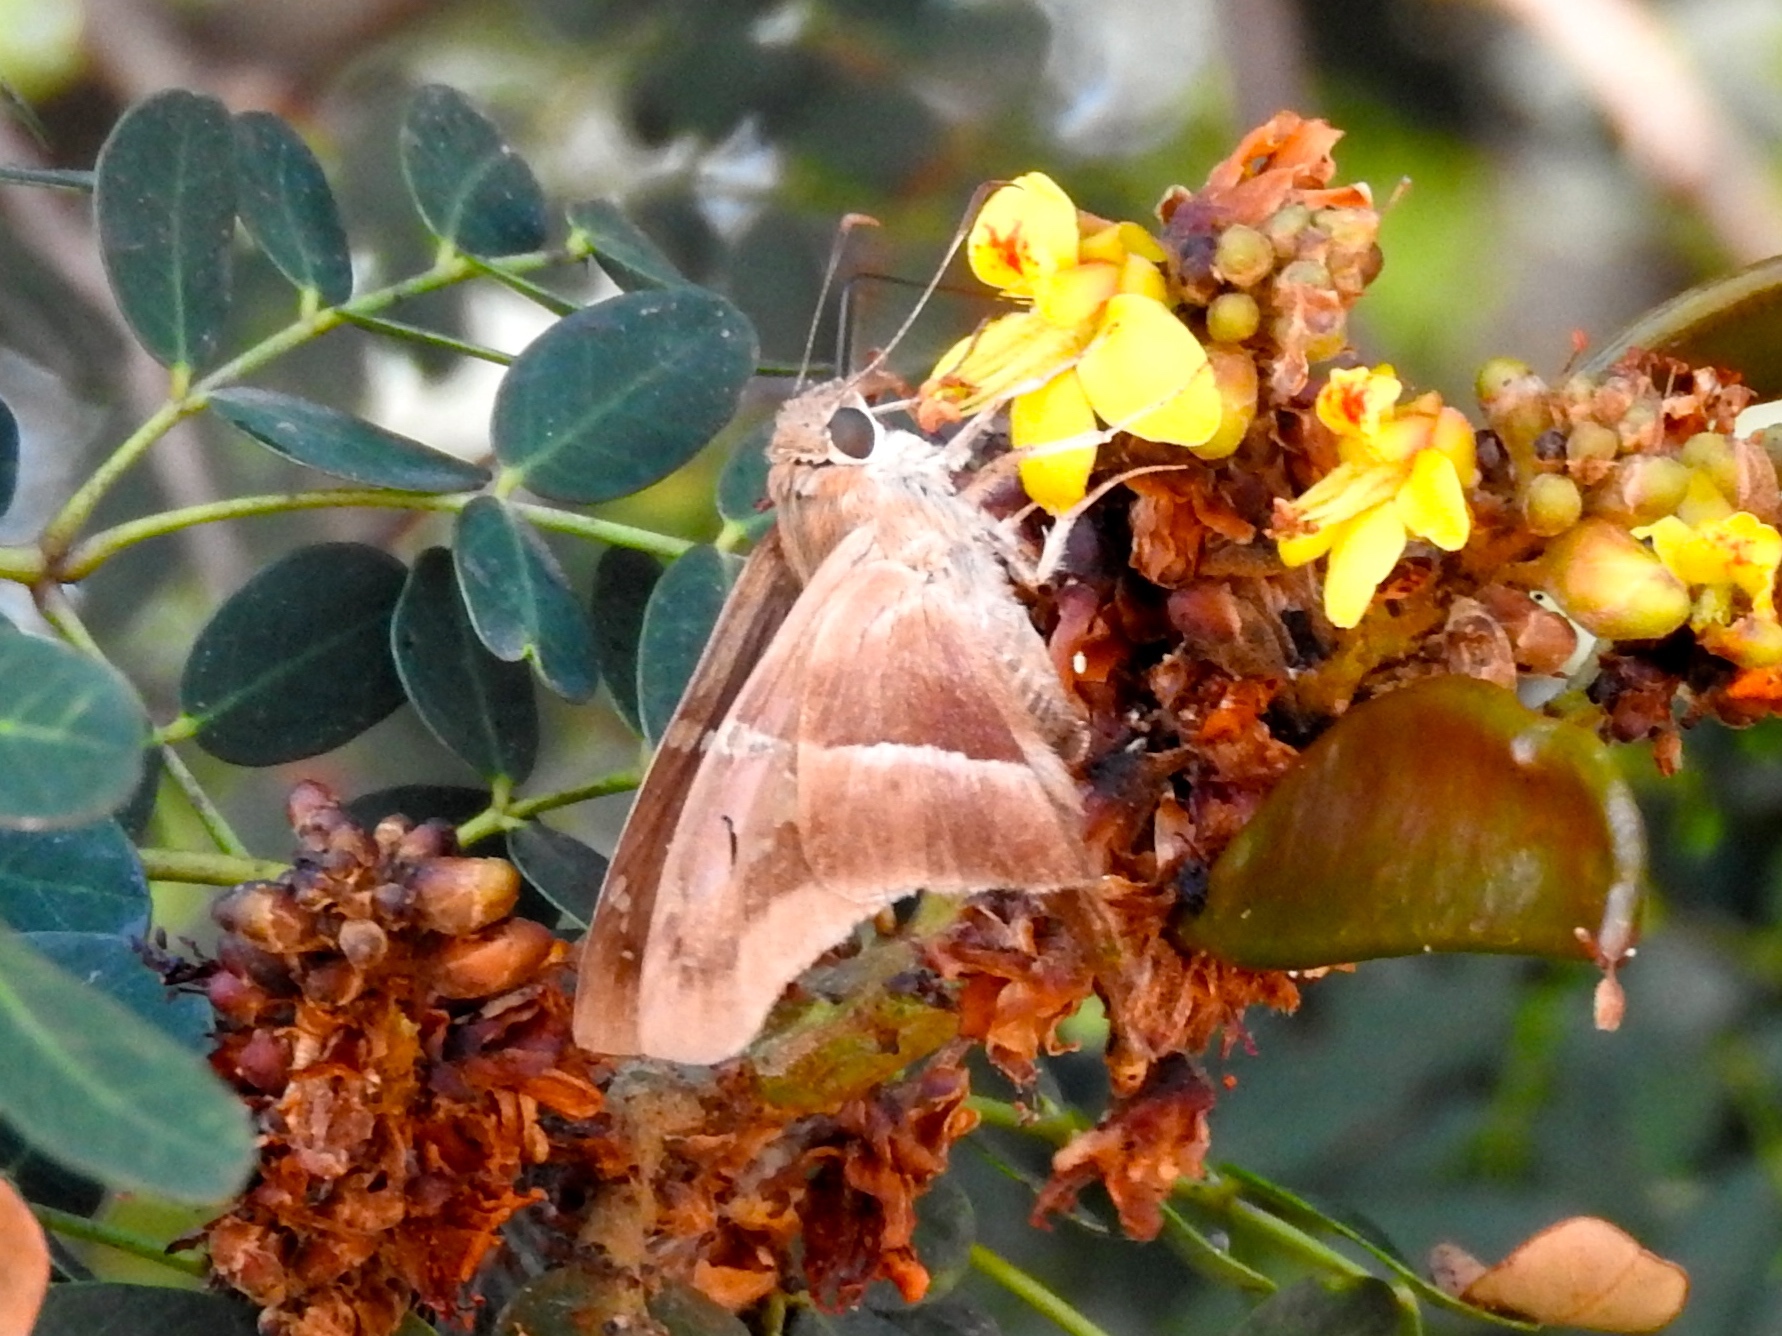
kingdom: Animalia
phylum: Arthropoda
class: Insecta
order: Lepidoptera
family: Hesperiidae
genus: Aguna
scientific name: Aguna asander
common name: Gold-spotted aguna
